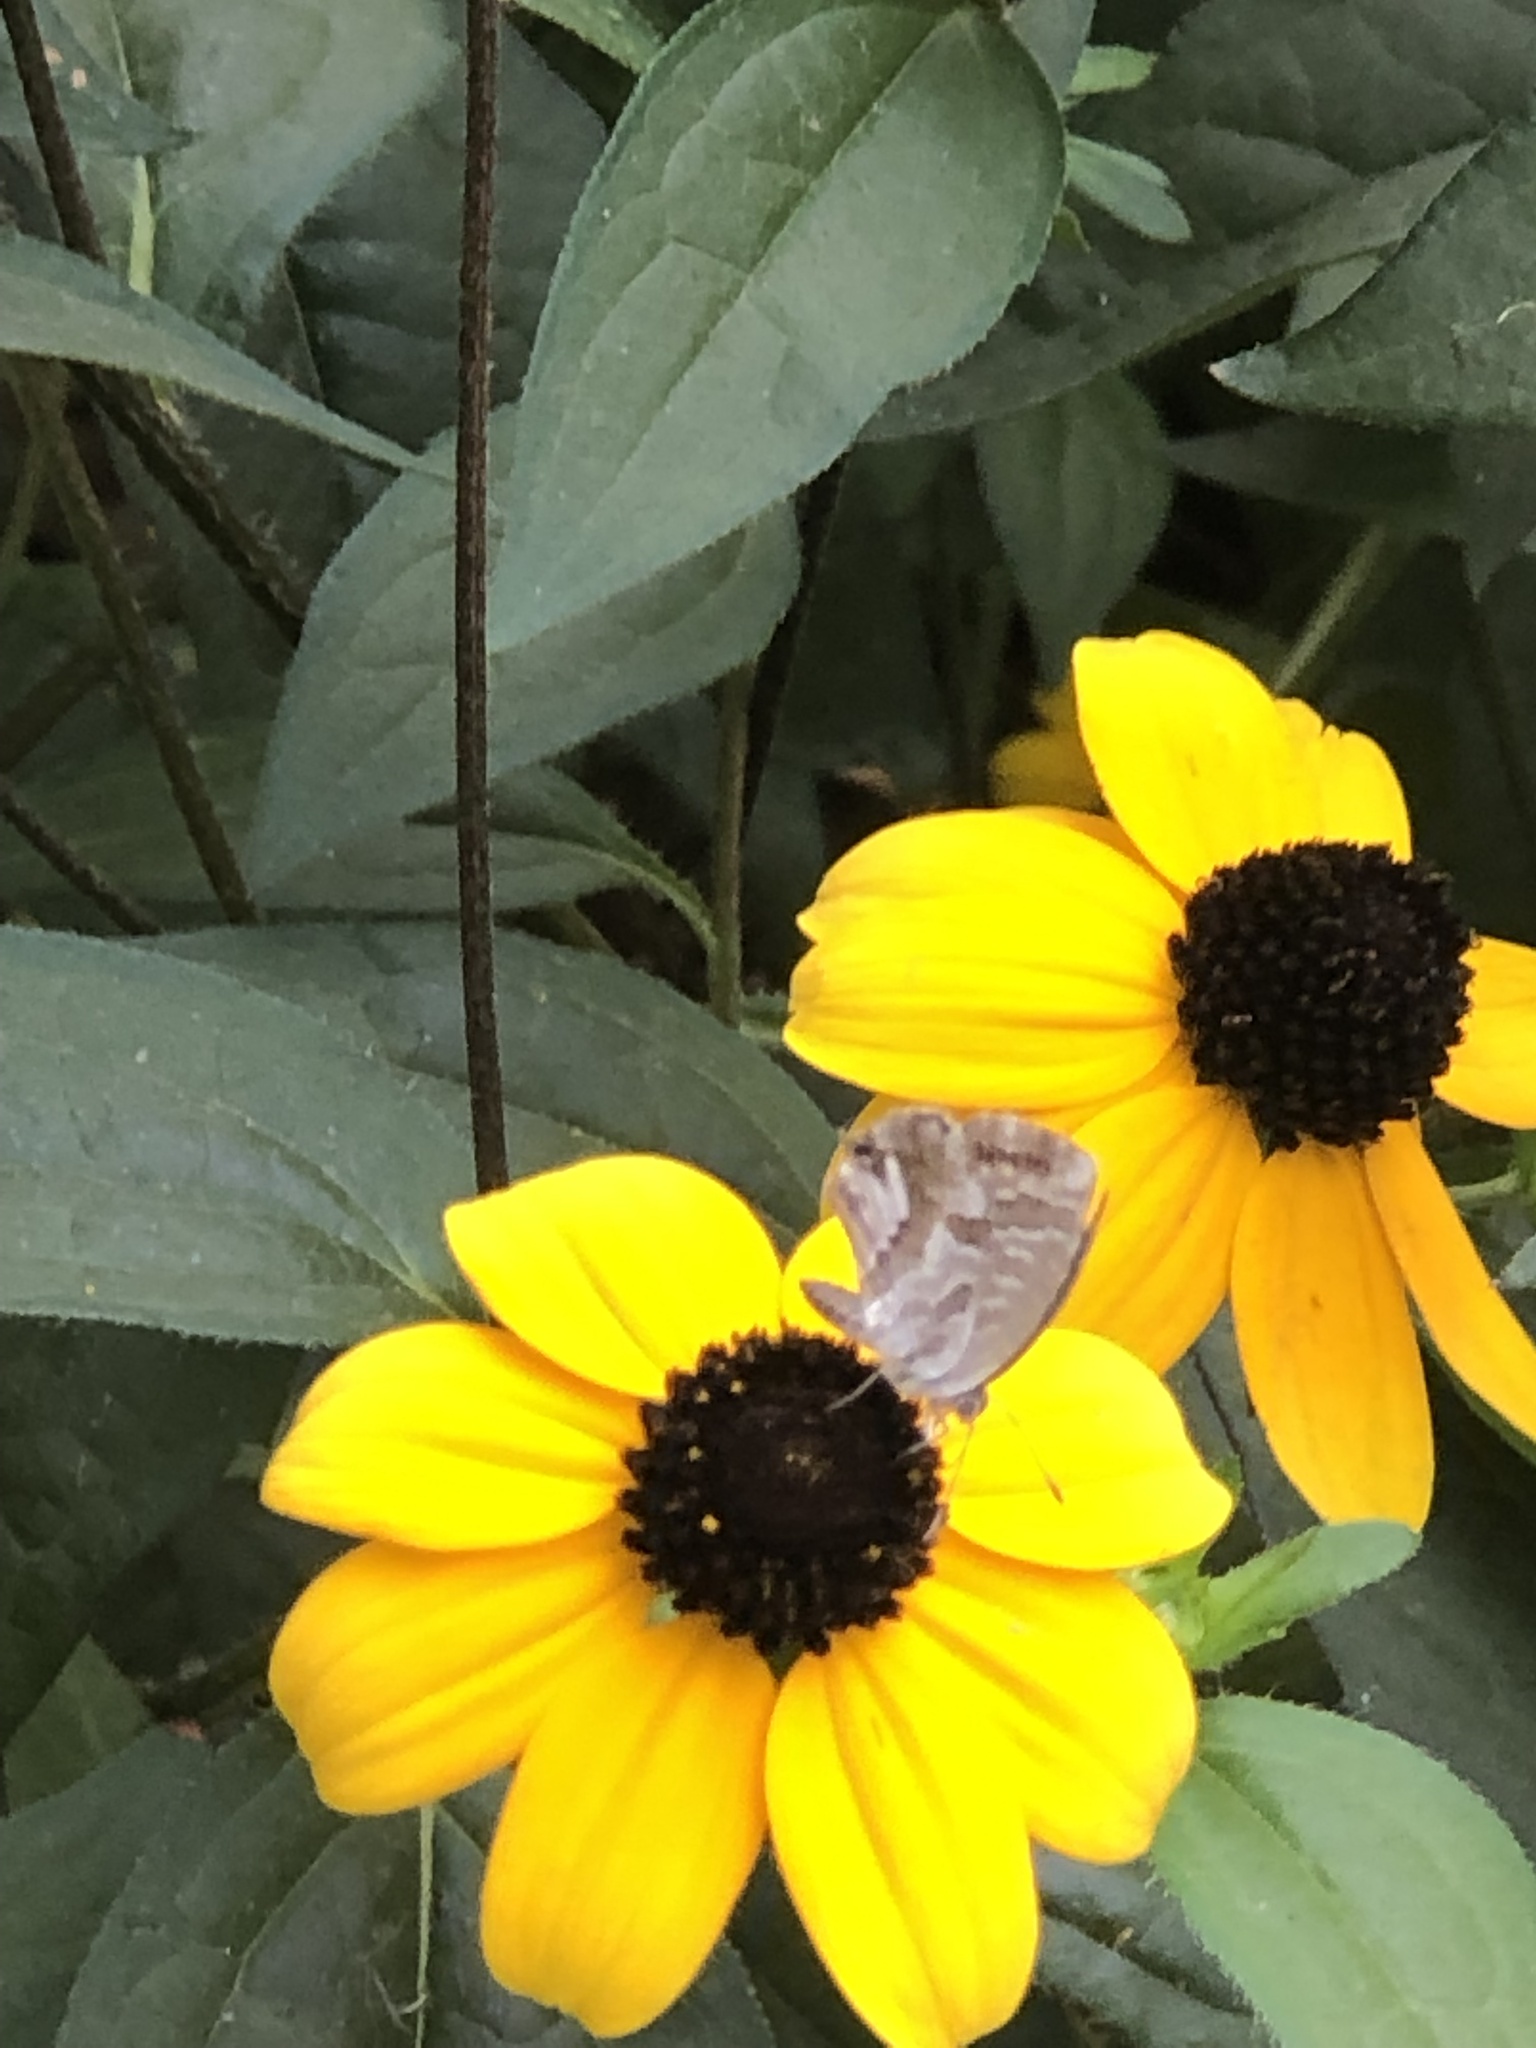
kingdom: Animalia
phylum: Arthropoda
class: Insecta
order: Lepidoptera
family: Lycaenidae
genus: Cacyreus
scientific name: Cacyreus marshalli
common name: Geranium bronze
